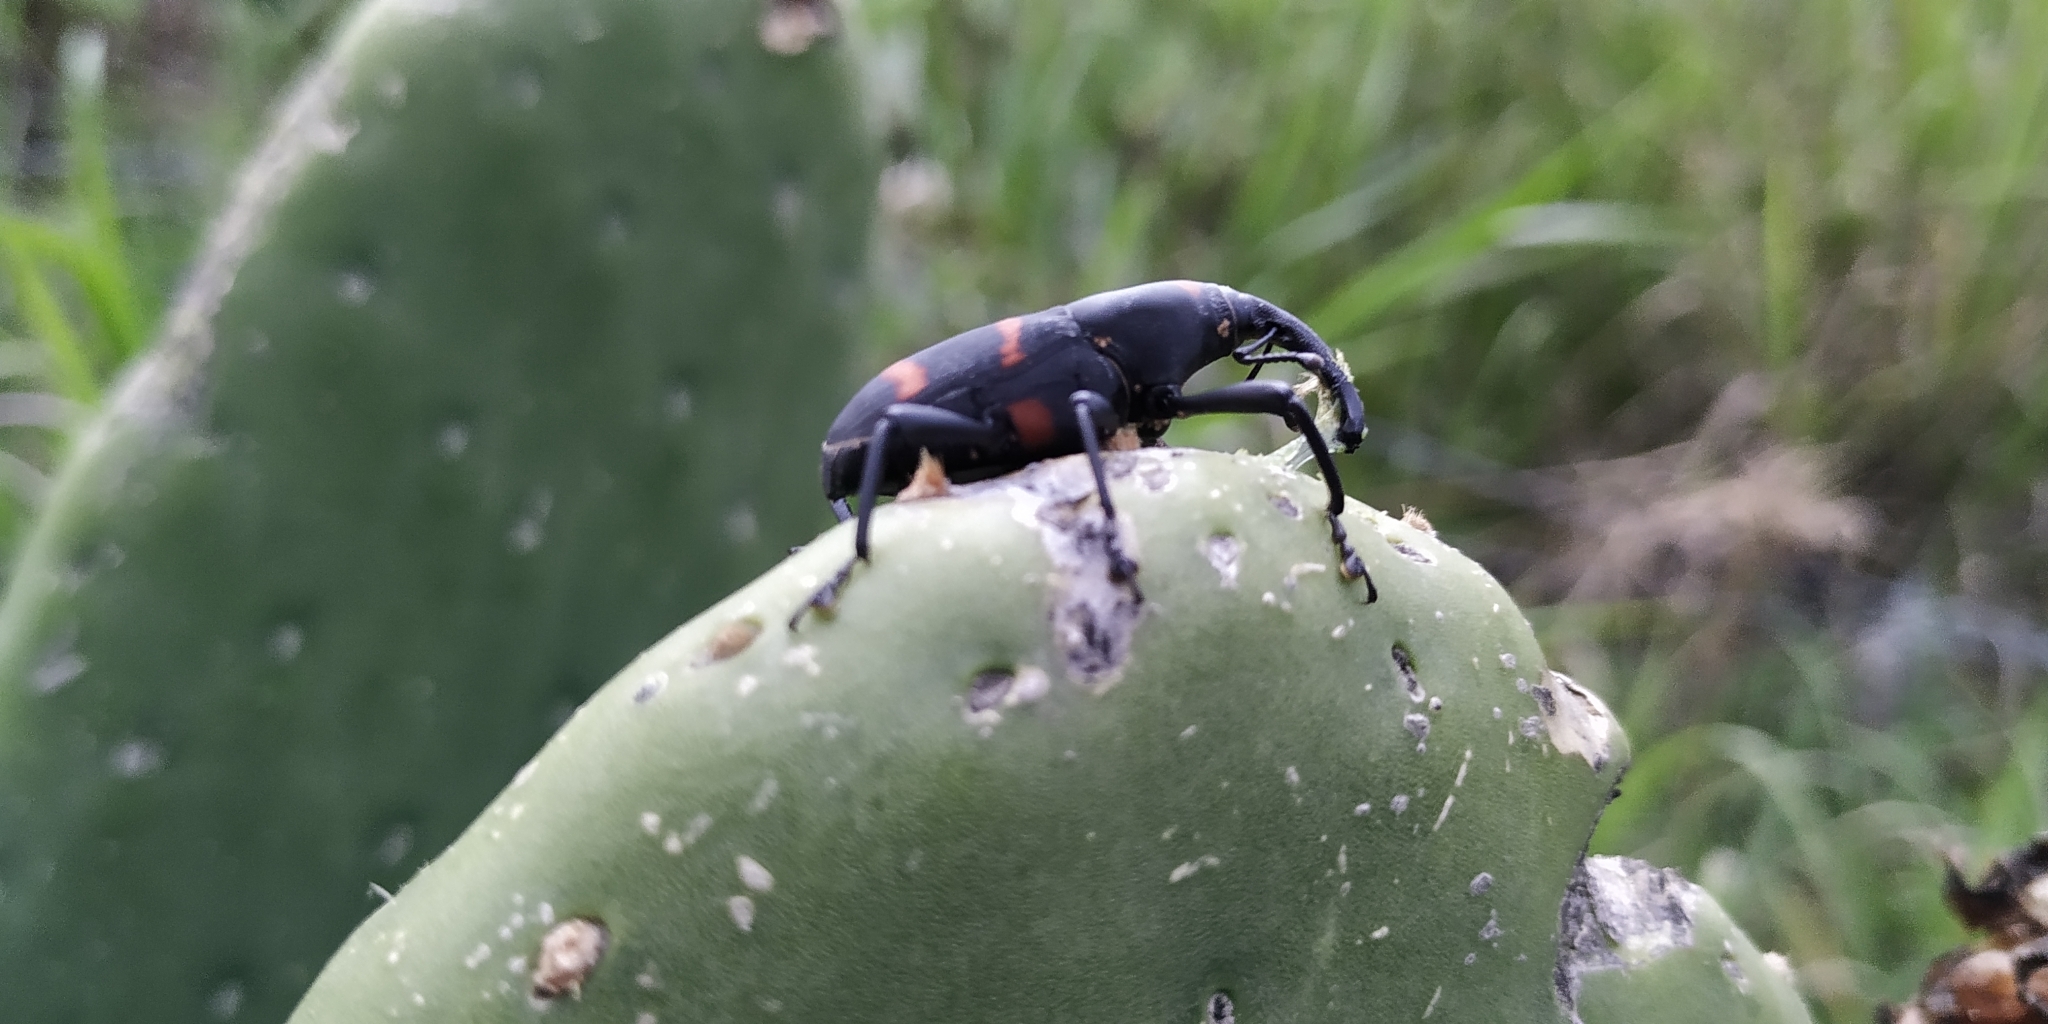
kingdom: Animalia
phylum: Arthropoda
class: Insecta
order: Coleoptera
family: Dryophthoridae
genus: Cactophagus
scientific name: Cactophagus spinolae
